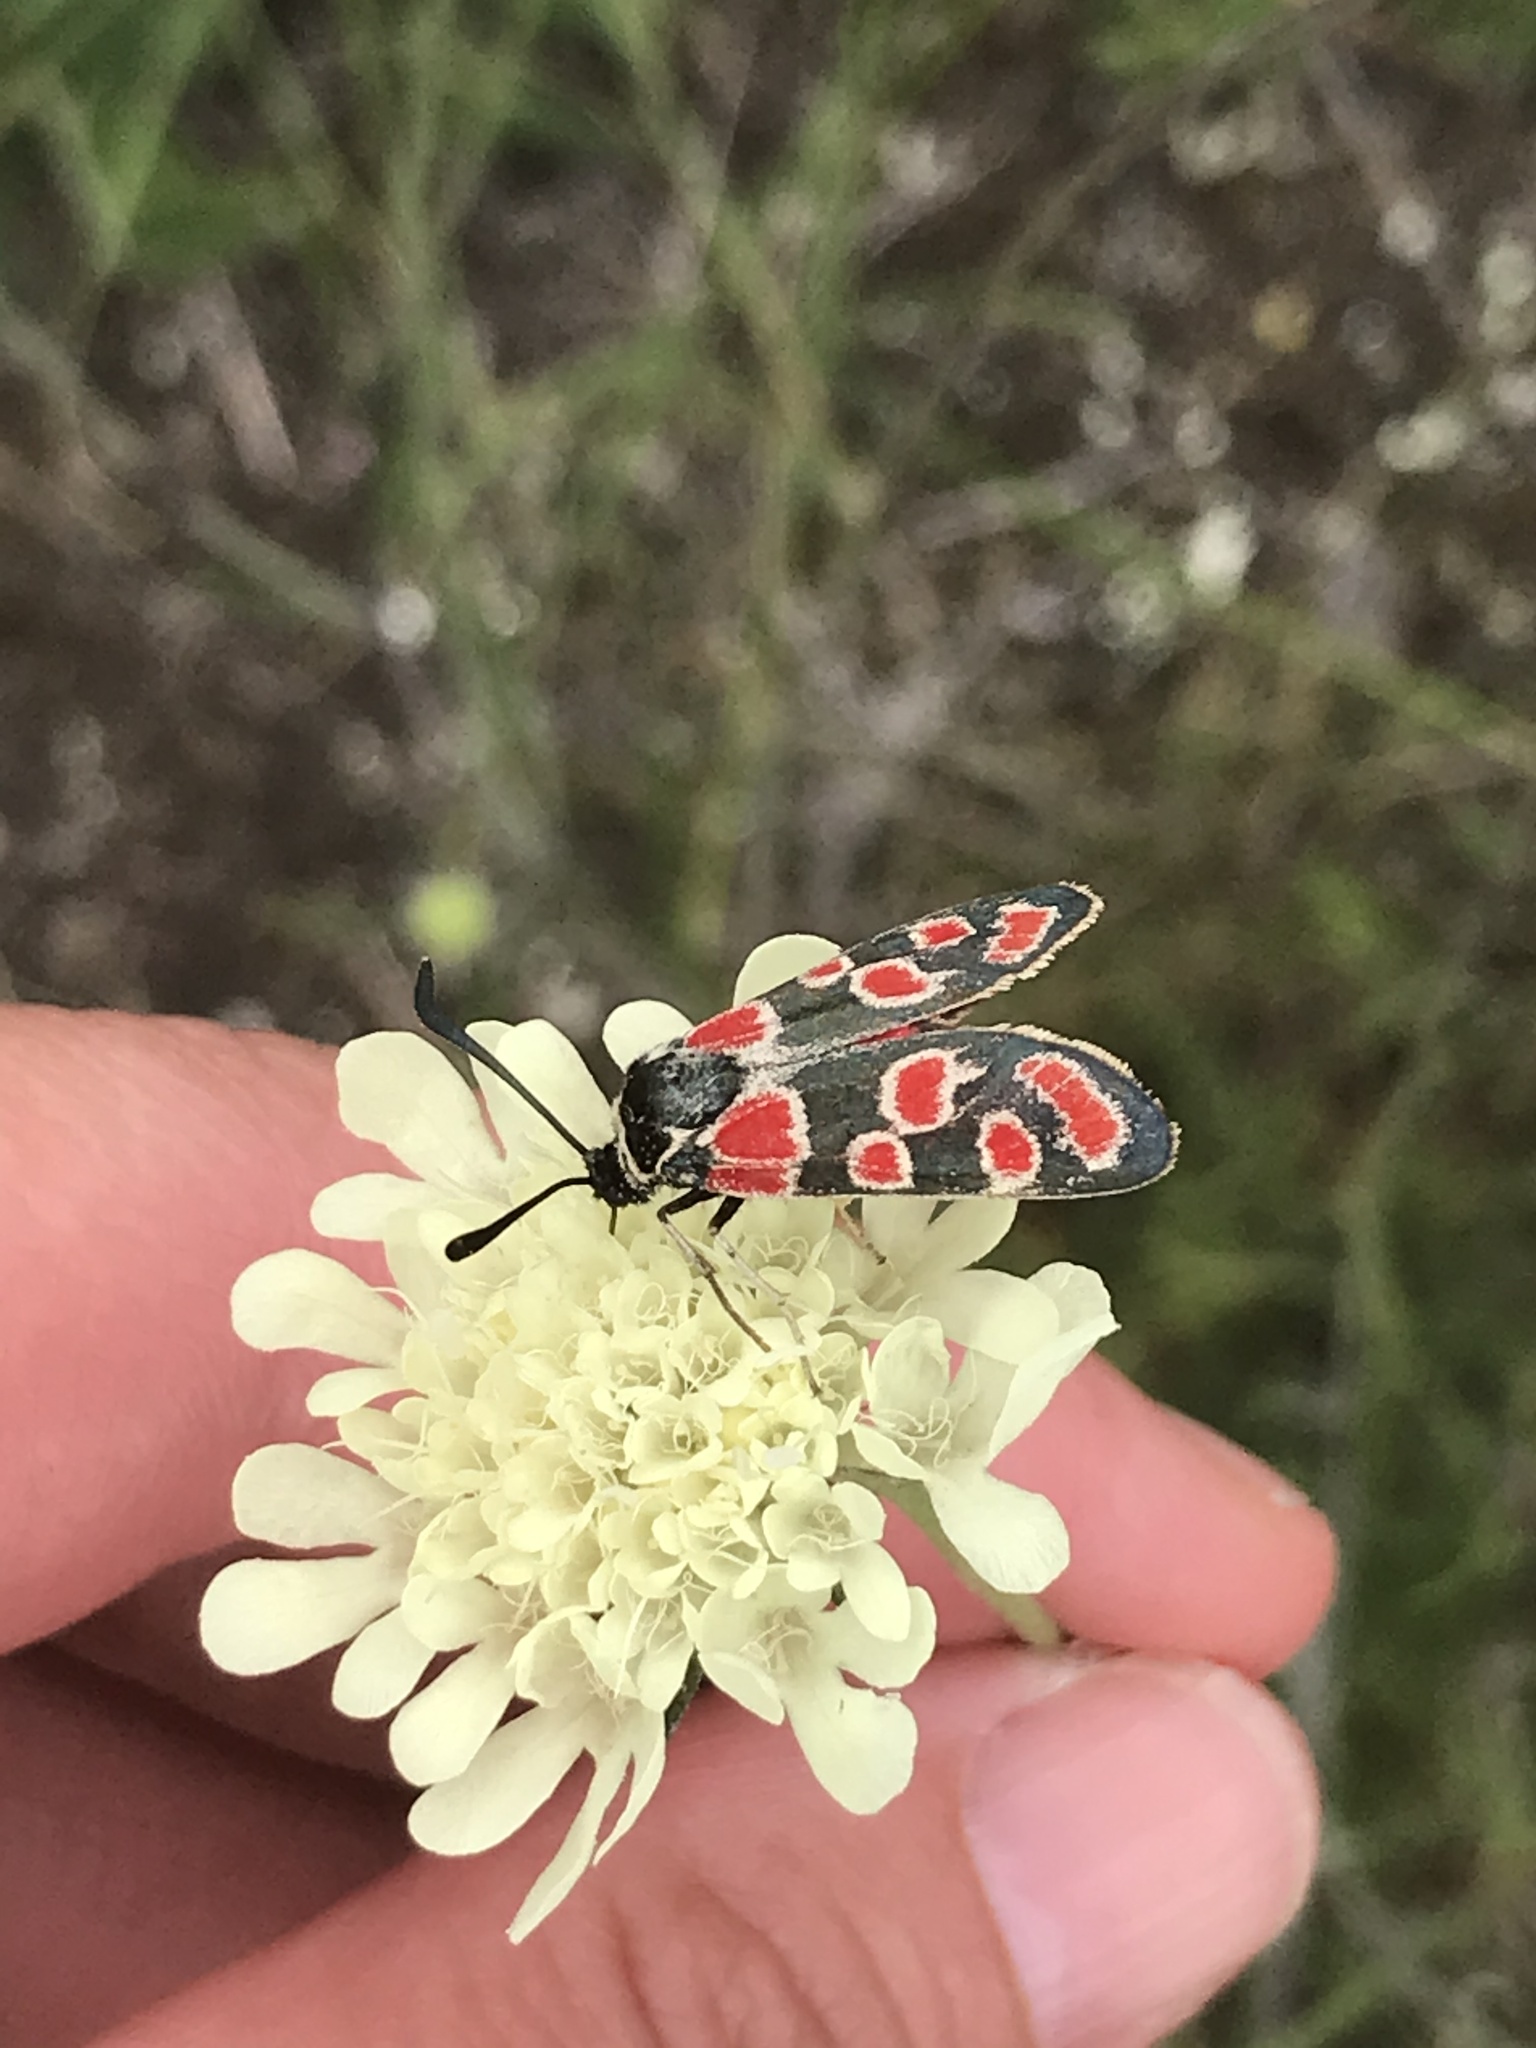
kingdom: Animalia
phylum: Arthropoda
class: Insecta
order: Lepidoptera
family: Zygaenidae
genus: Zygaena
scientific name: Zygaena carniolica
